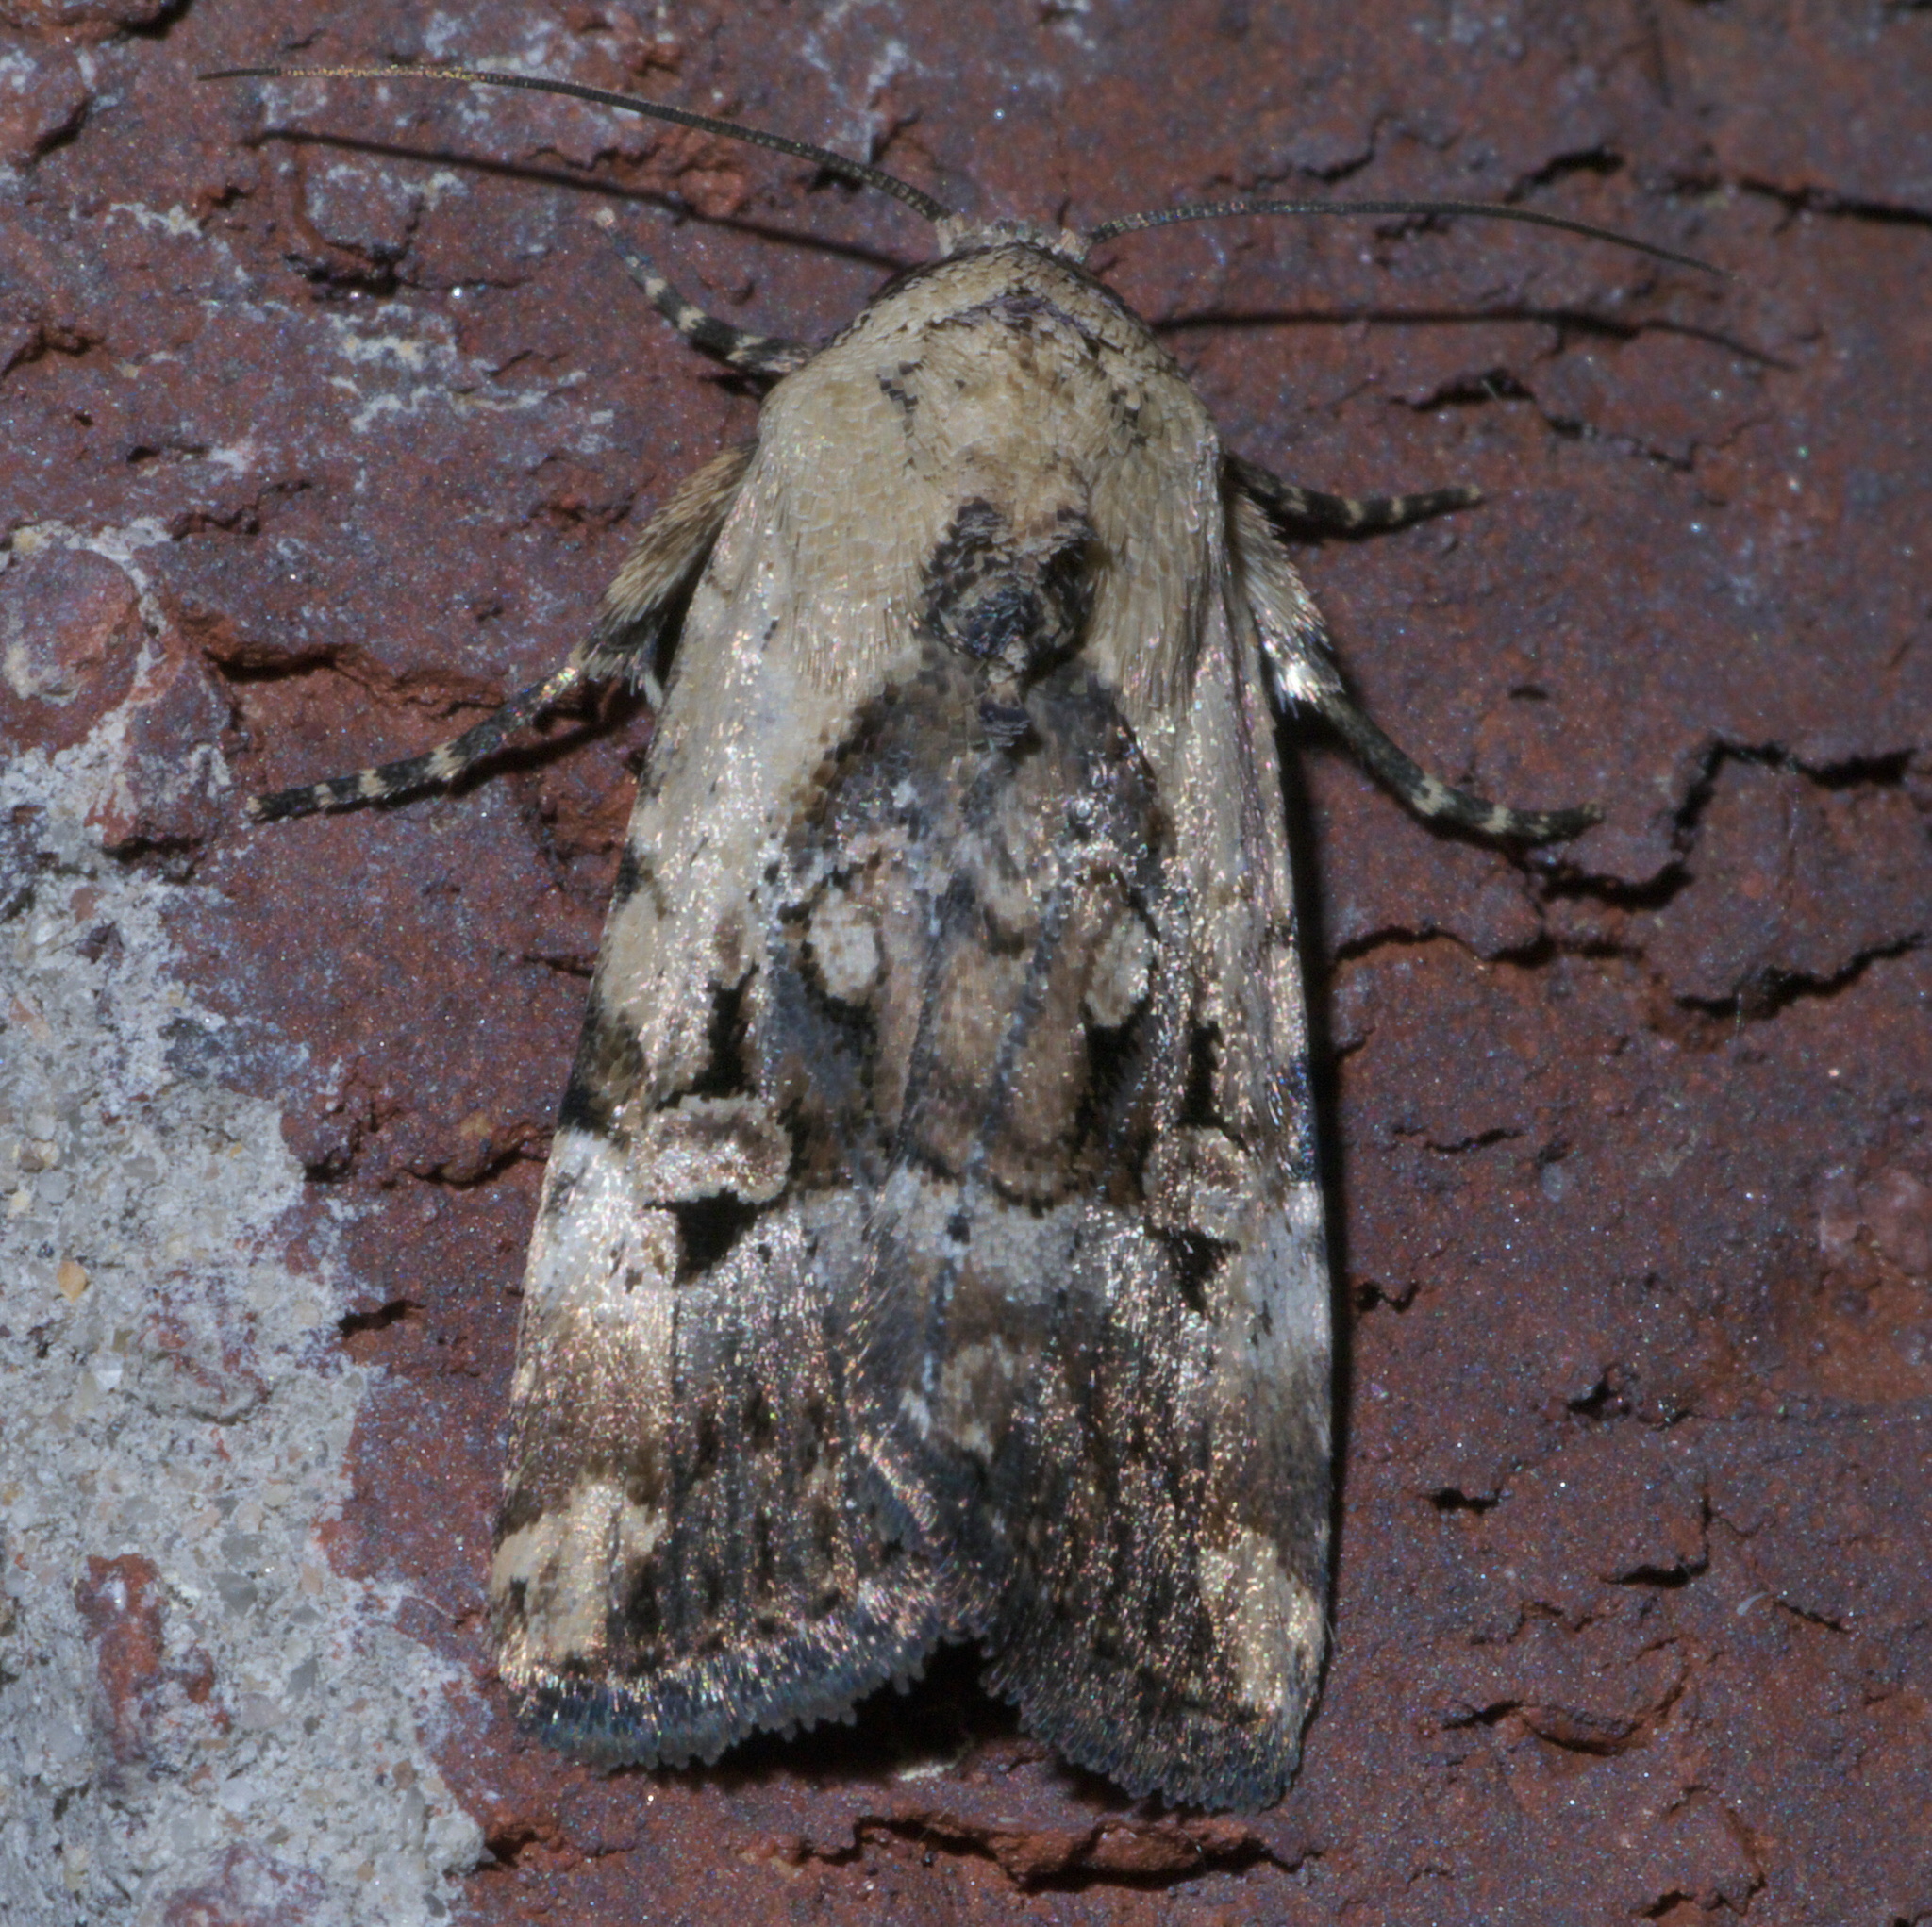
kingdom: Animalia
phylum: Arthropoda
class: Insecta
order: Lepidoptera
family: Noctuidae
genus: Elaphria
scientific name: Elaphria chalcedonia
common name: Chalcedony midget
